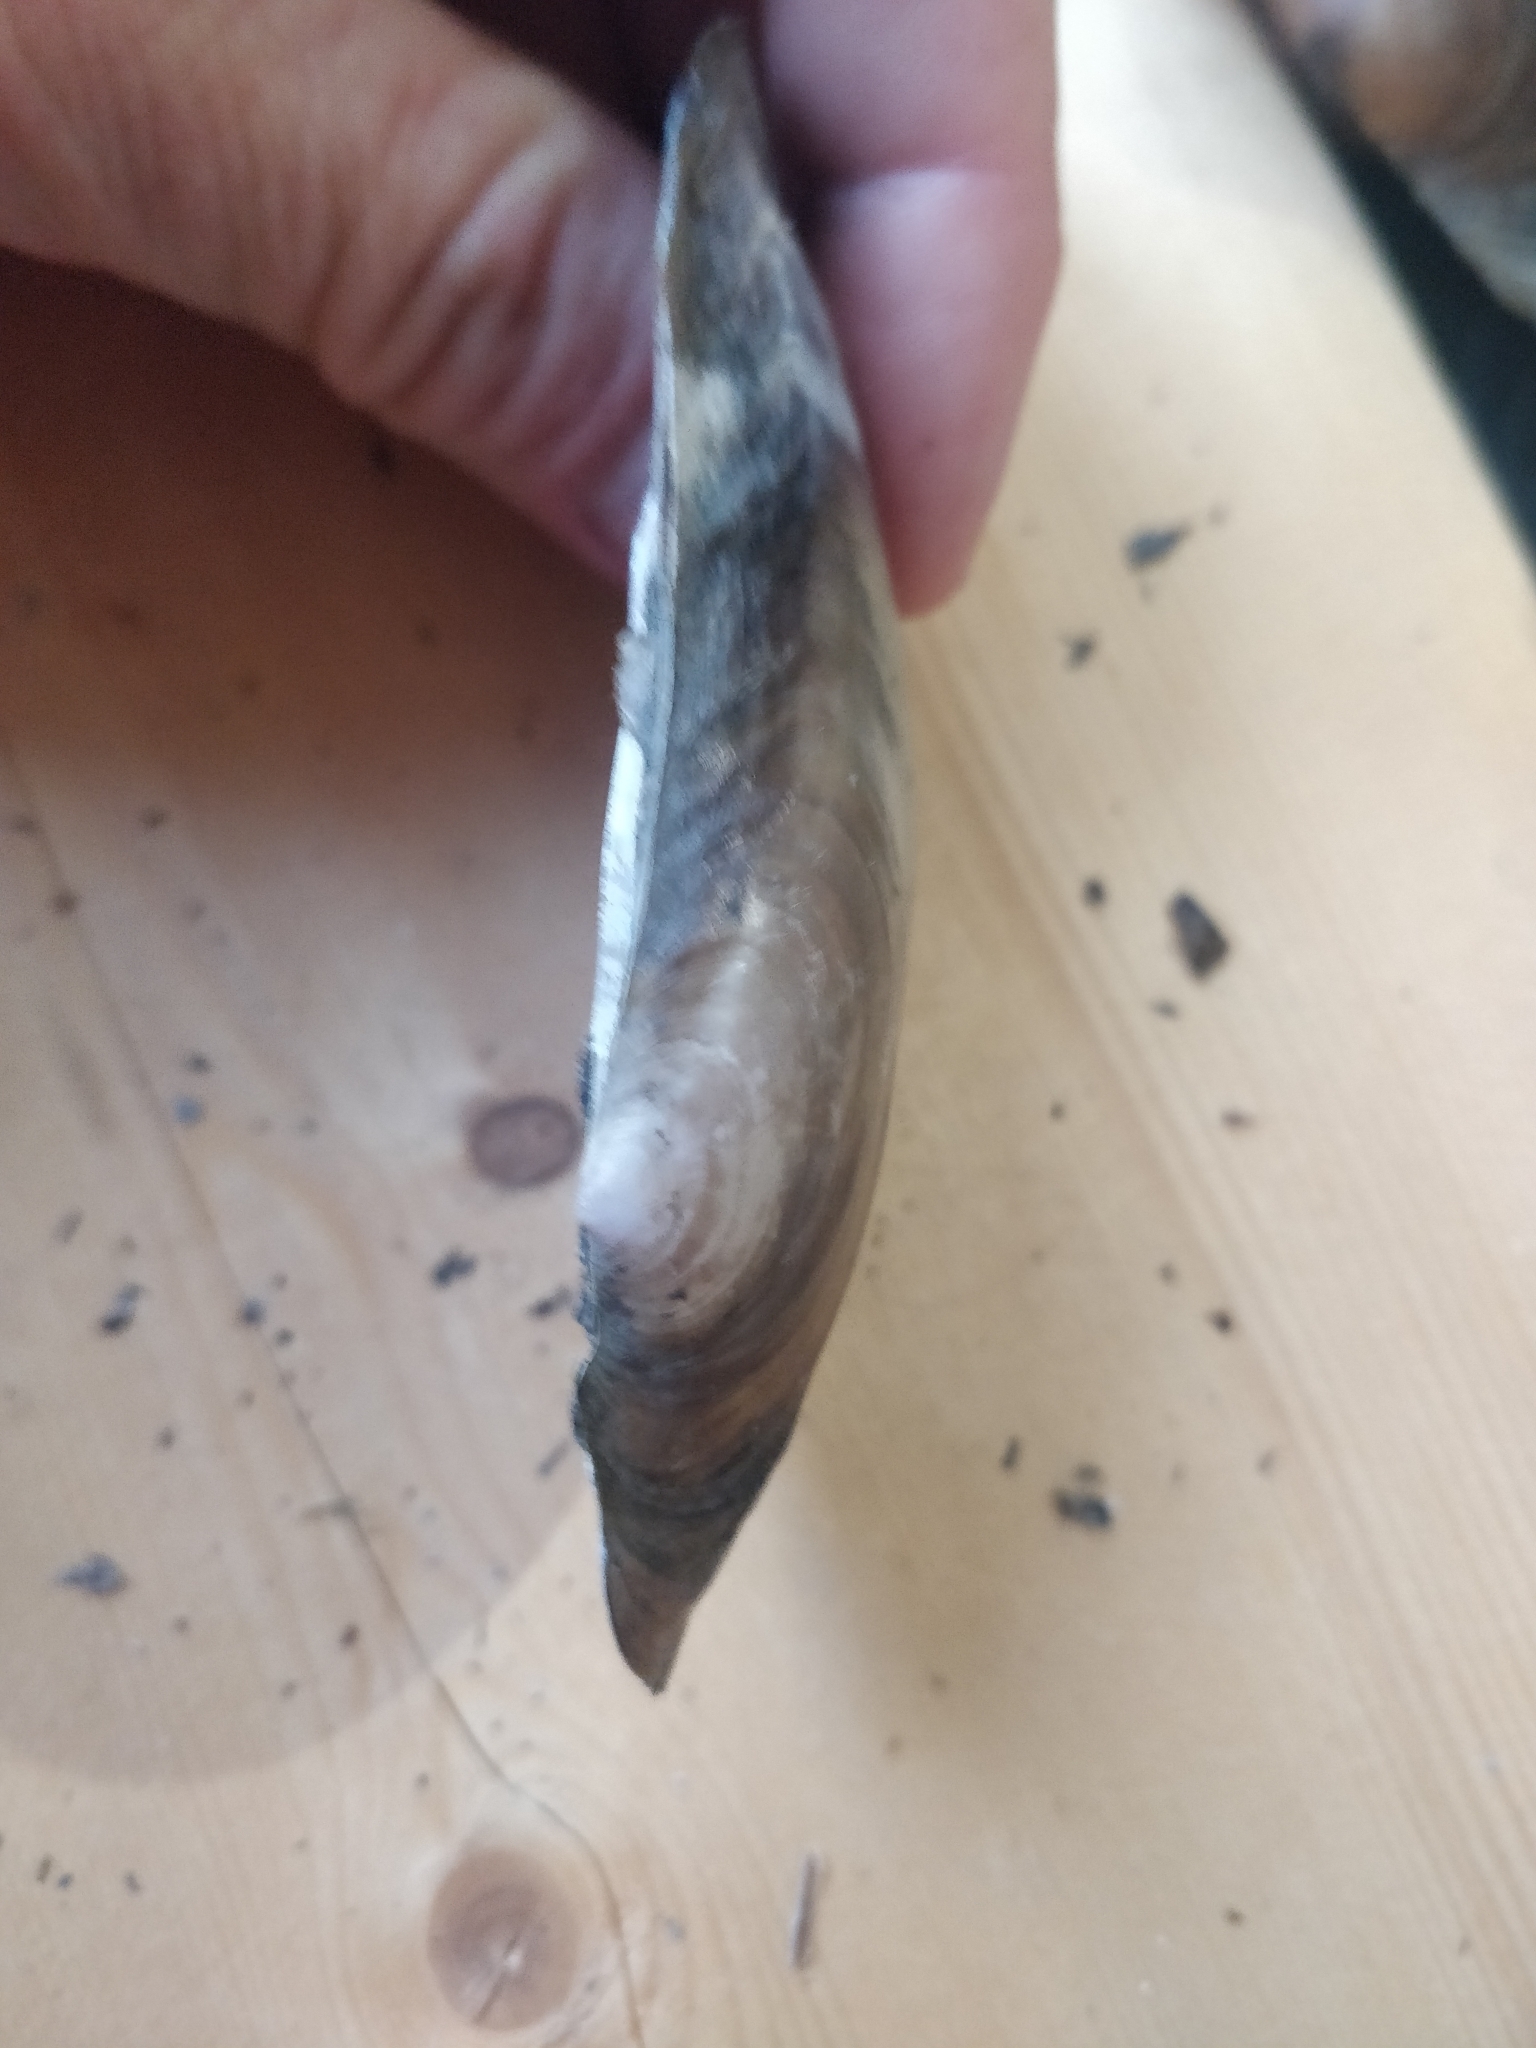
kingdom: Animalia
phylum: Mollusca
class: Bivalvia
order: Unionida
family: Unionidae
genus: Potamilus
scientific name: Potamilus ohiensis
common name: Pink papershell
